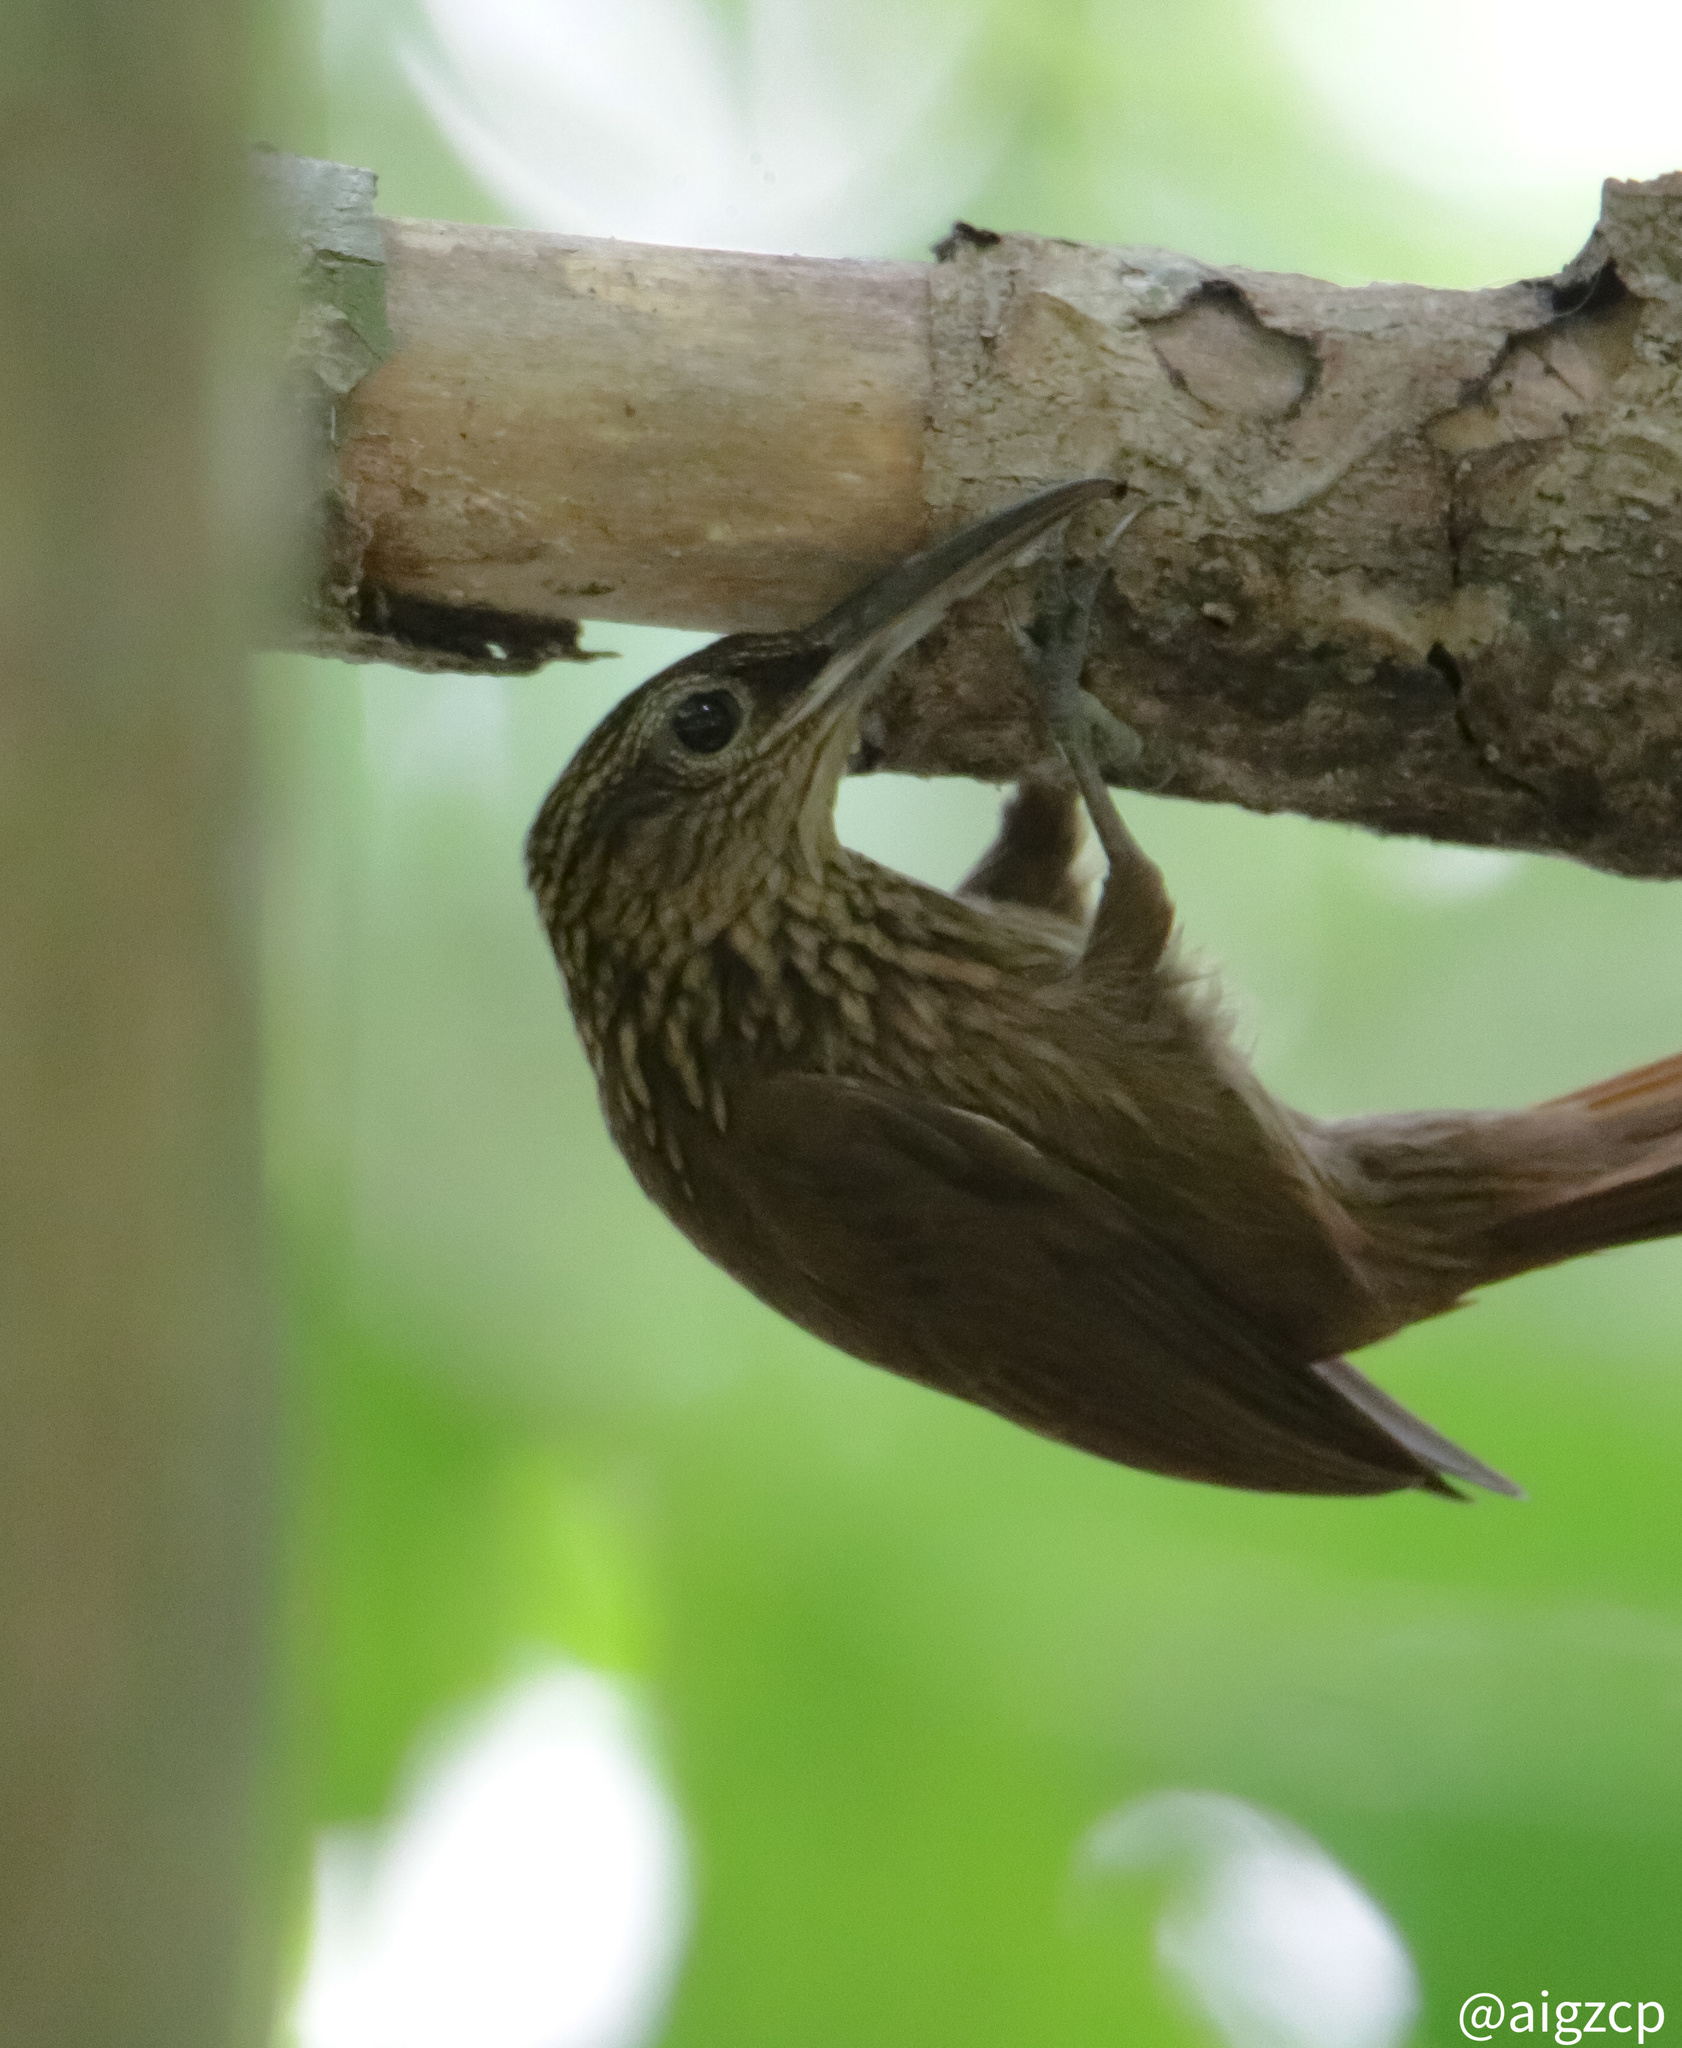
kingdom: Animalia
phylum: Chordata
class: Aves
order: Passeriformes
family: Furnariidae
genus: Xiphorhynchus
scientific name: Xiphorhynchus susurrans
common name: Cocoa woodcreeper
